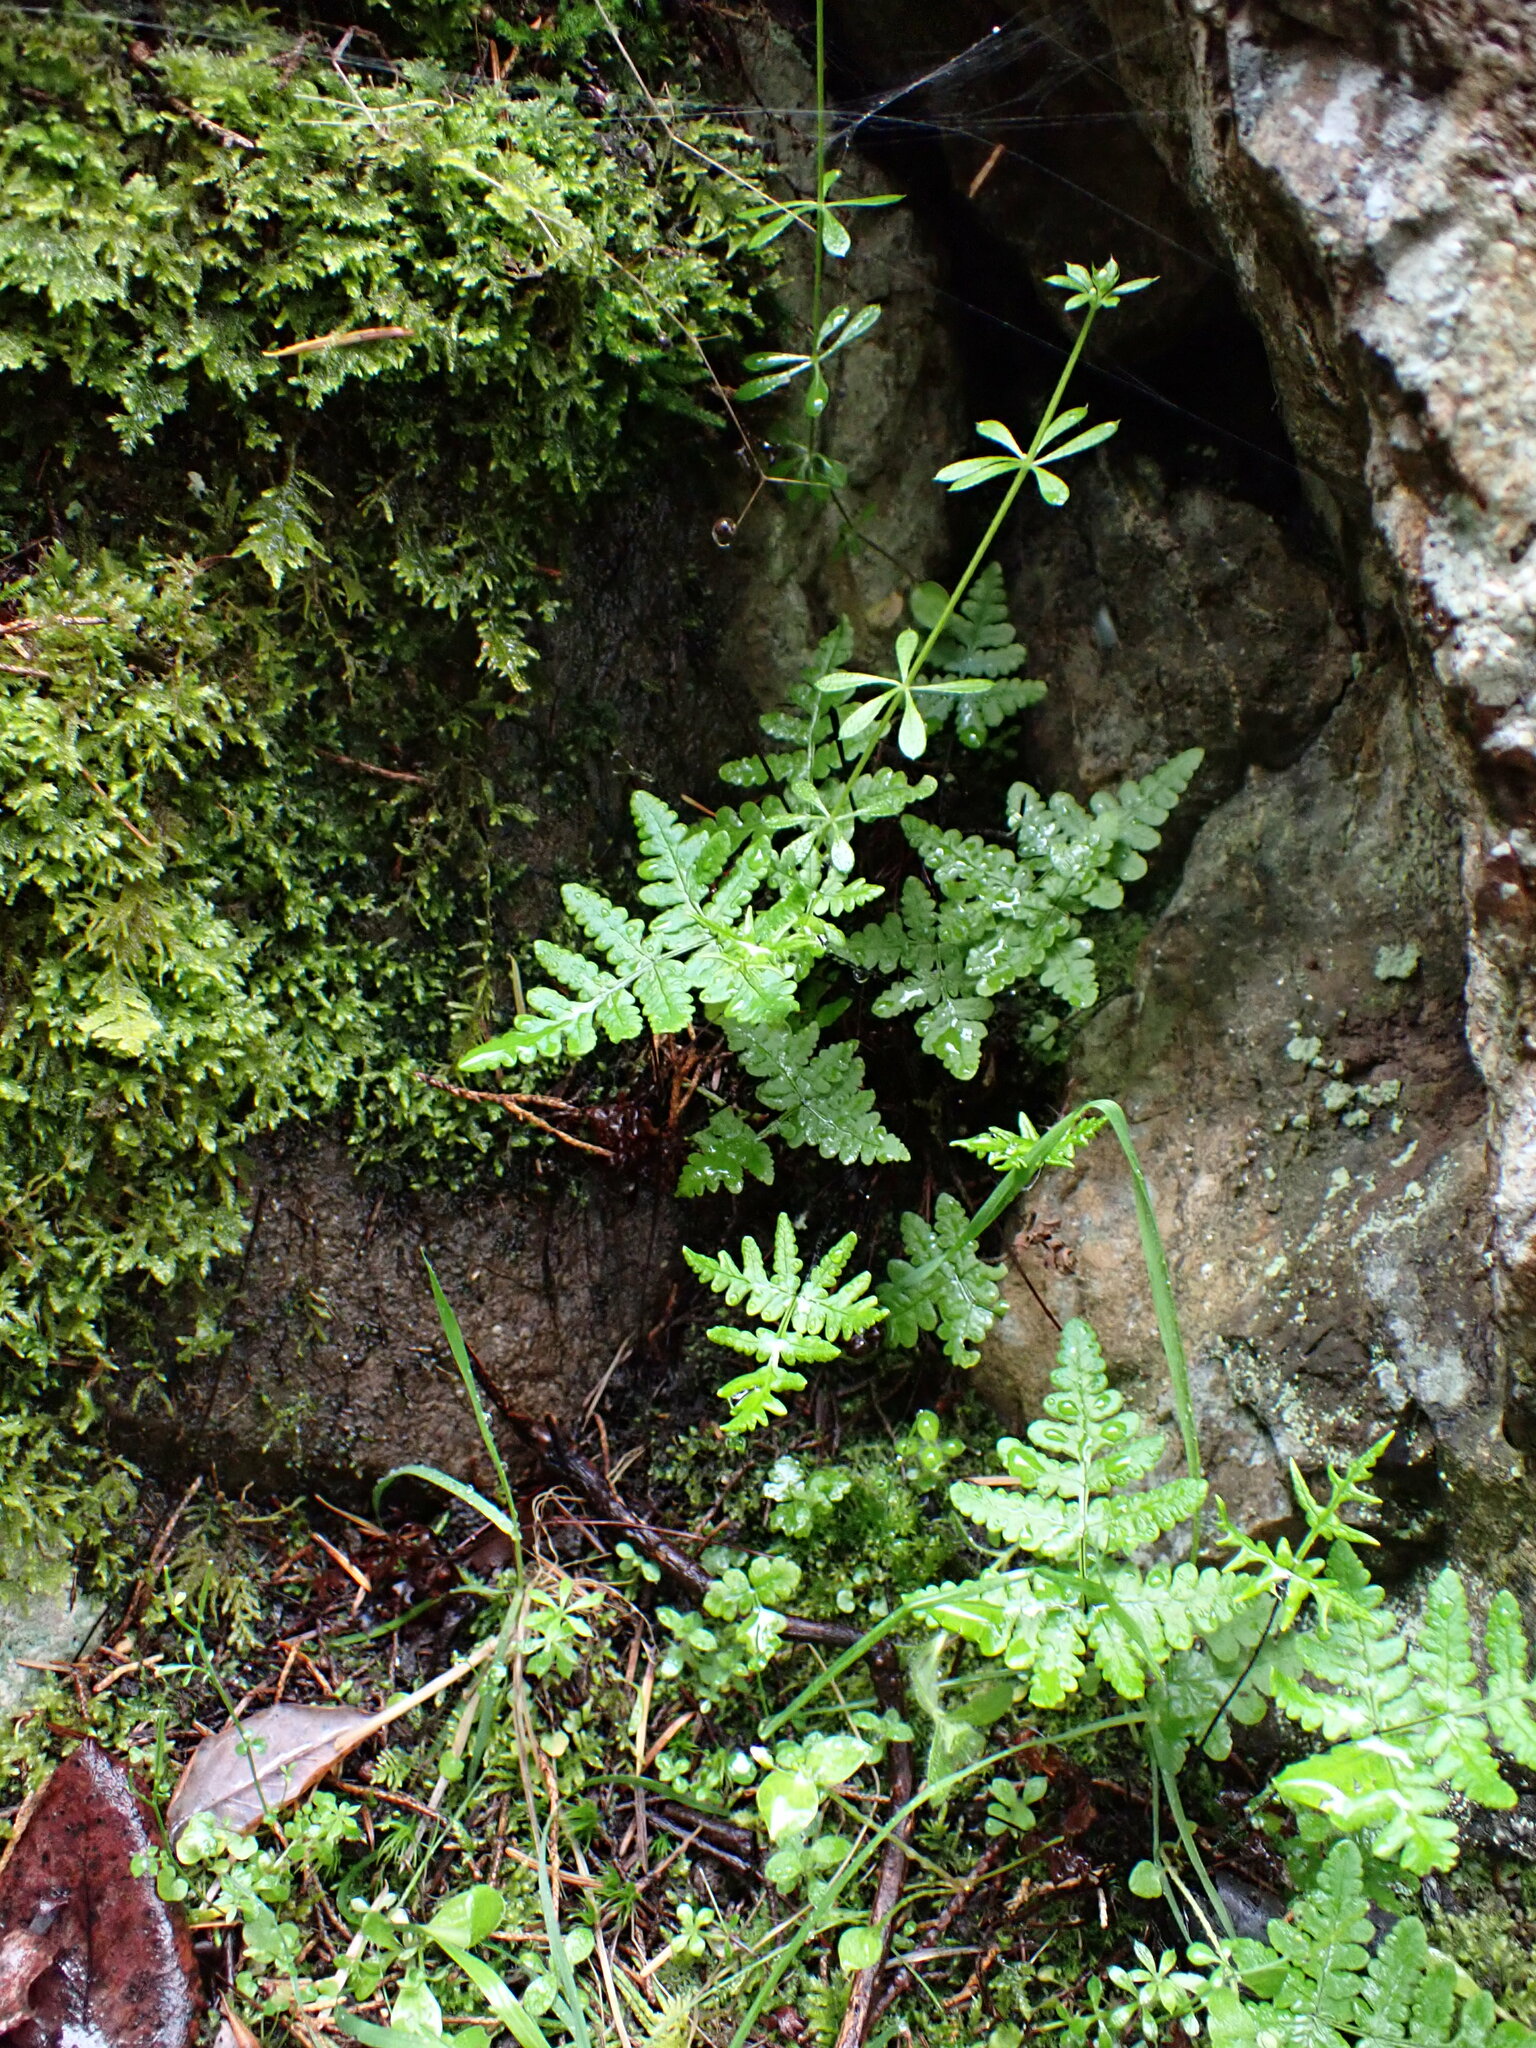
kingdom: Plantae
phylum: Tracheophyta
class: Polypodiopsida
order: Polypodiales
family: Pteridaceae
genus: Pentagramma
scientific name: Pentagramma triangularis
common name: Gold fern
